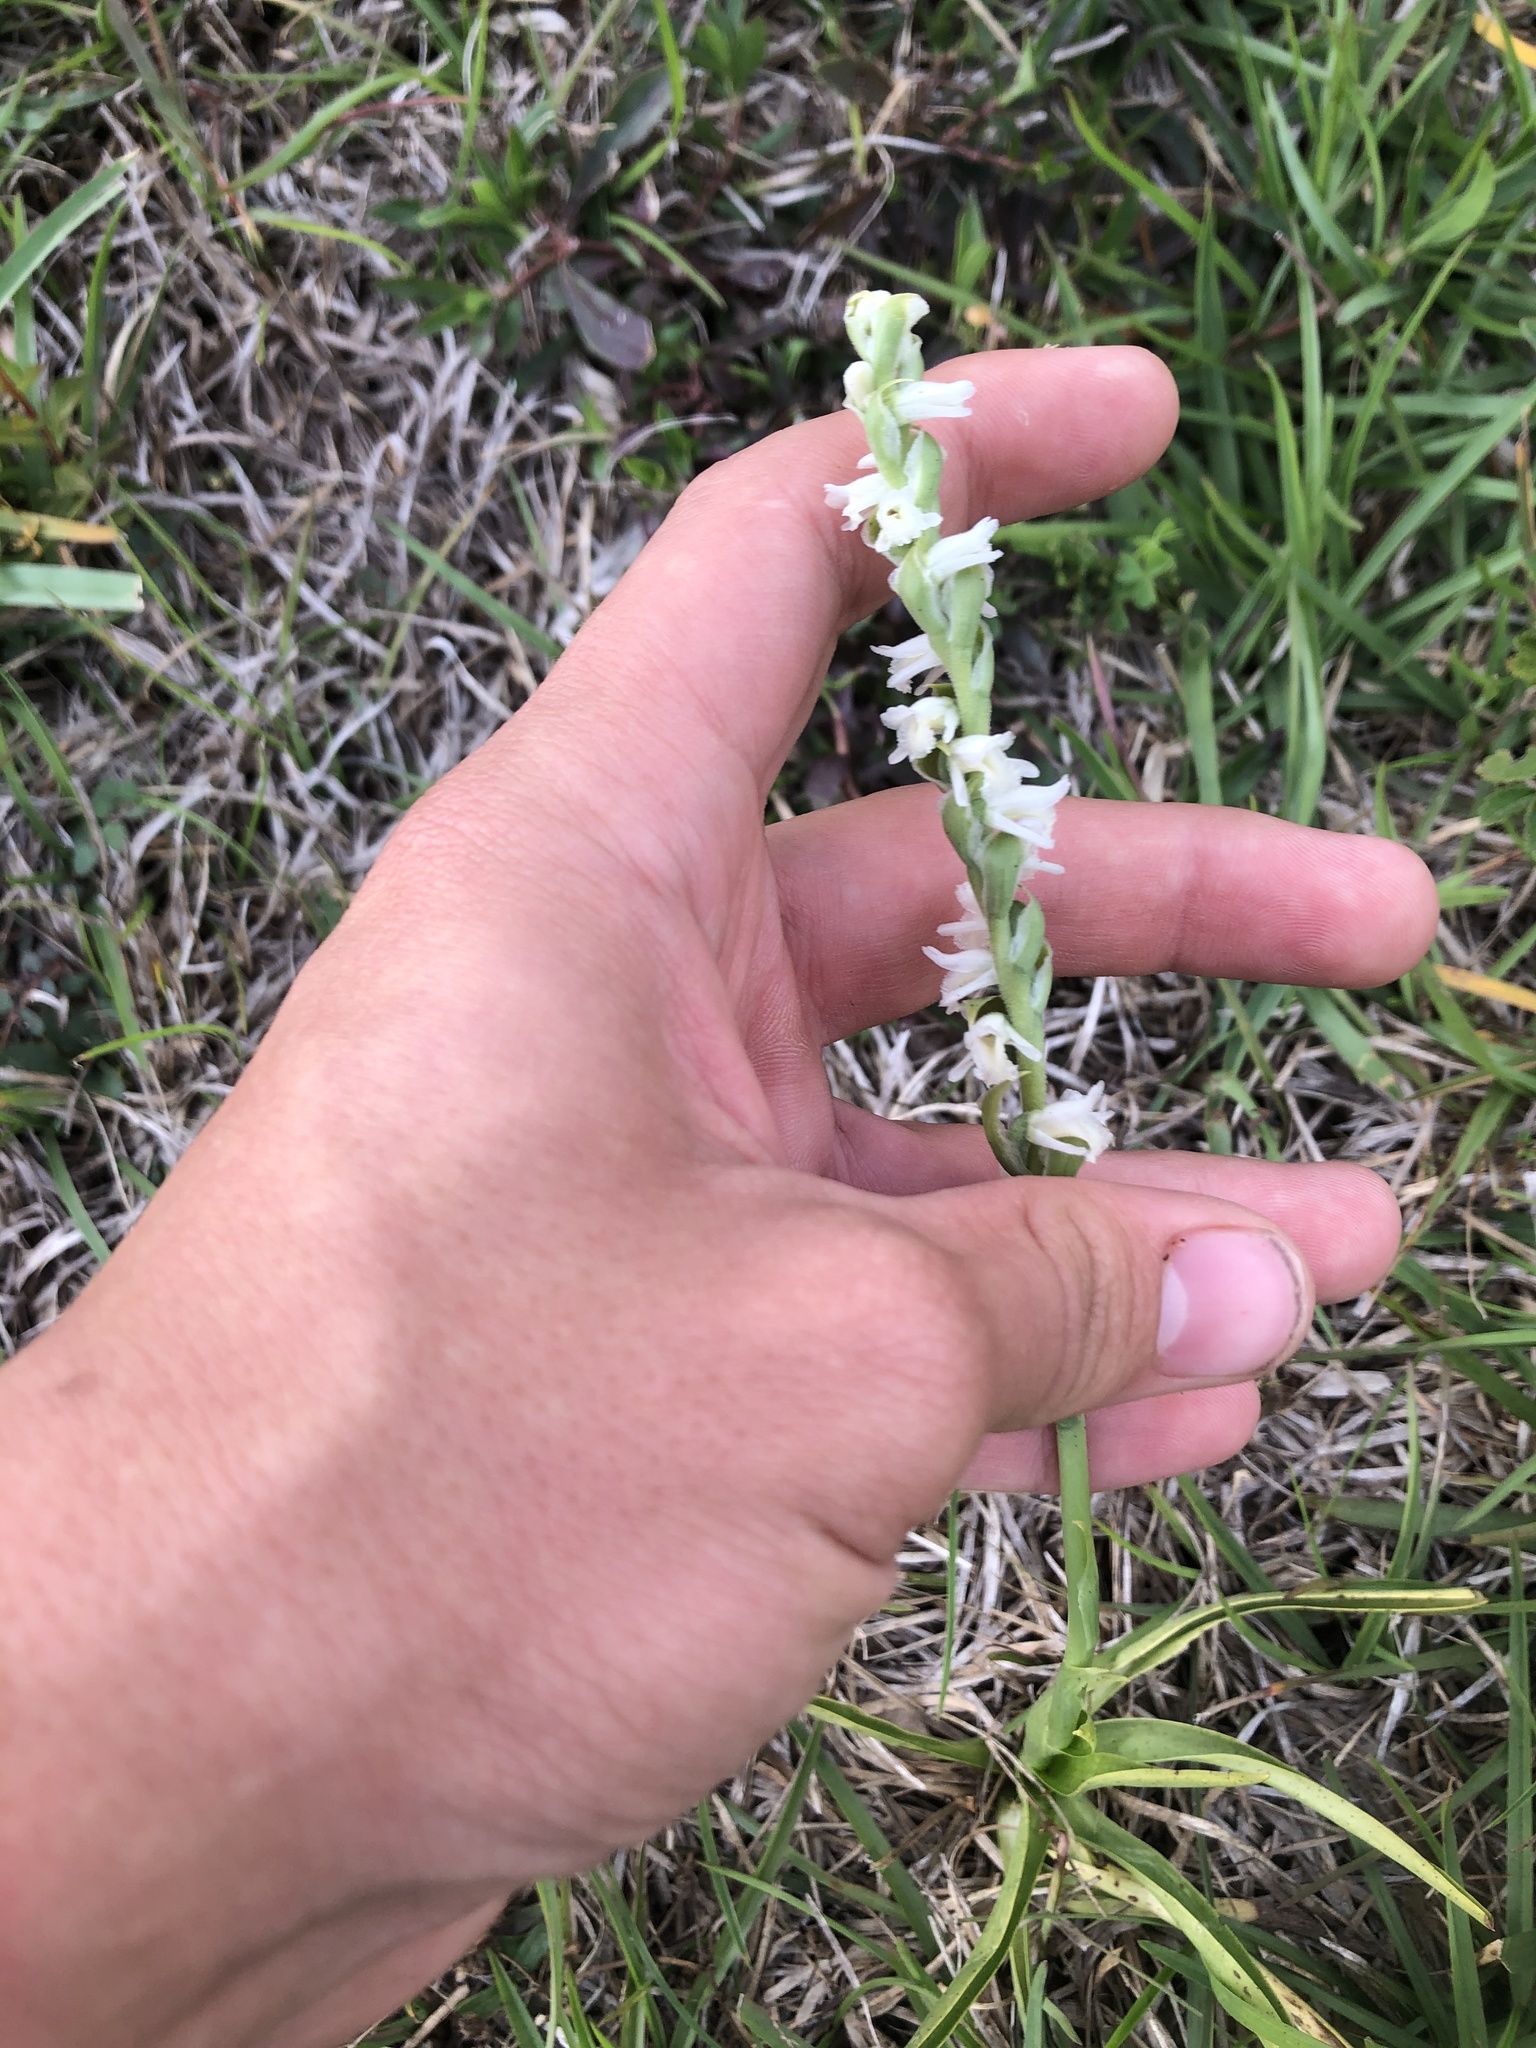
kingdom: Plantae
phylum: Tracheophyta
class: Liliopsida
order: Asparagales
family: Orchidaceae
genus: Spiranthes
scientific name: Spiranthes vernalis
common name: Spring ladies'-tresses
